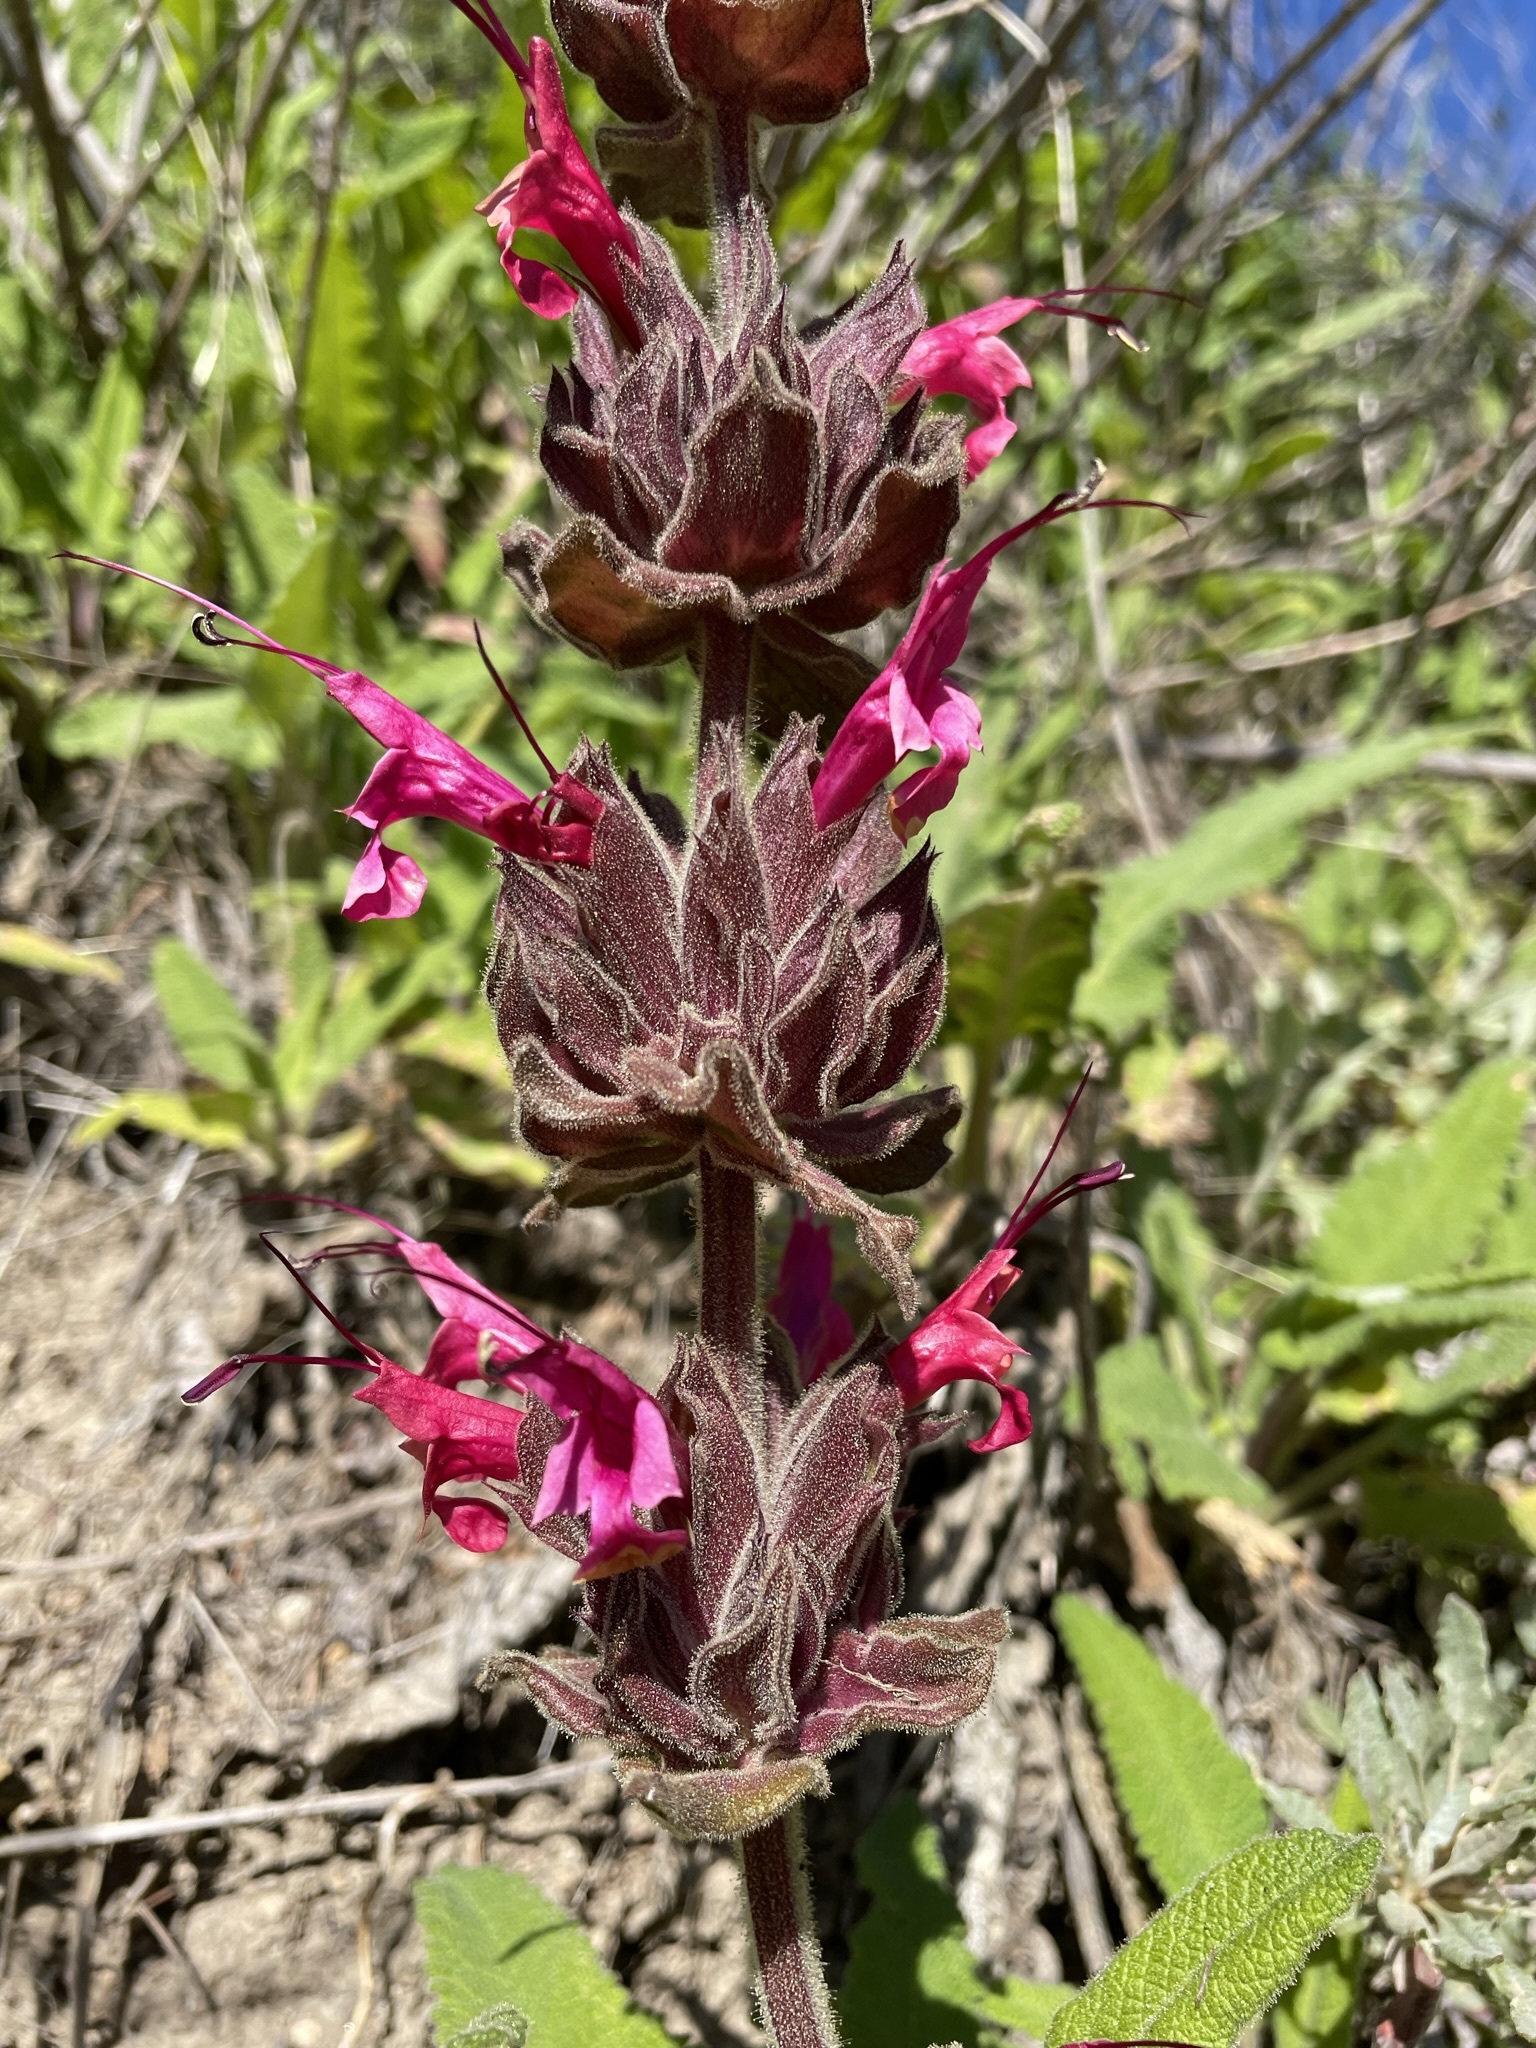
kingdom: Plantae
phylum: Tracheophyta
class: Magnoliopsida
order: Lamiales
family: Lamiaceae
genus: Salvia
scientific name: Salvia spathacea
